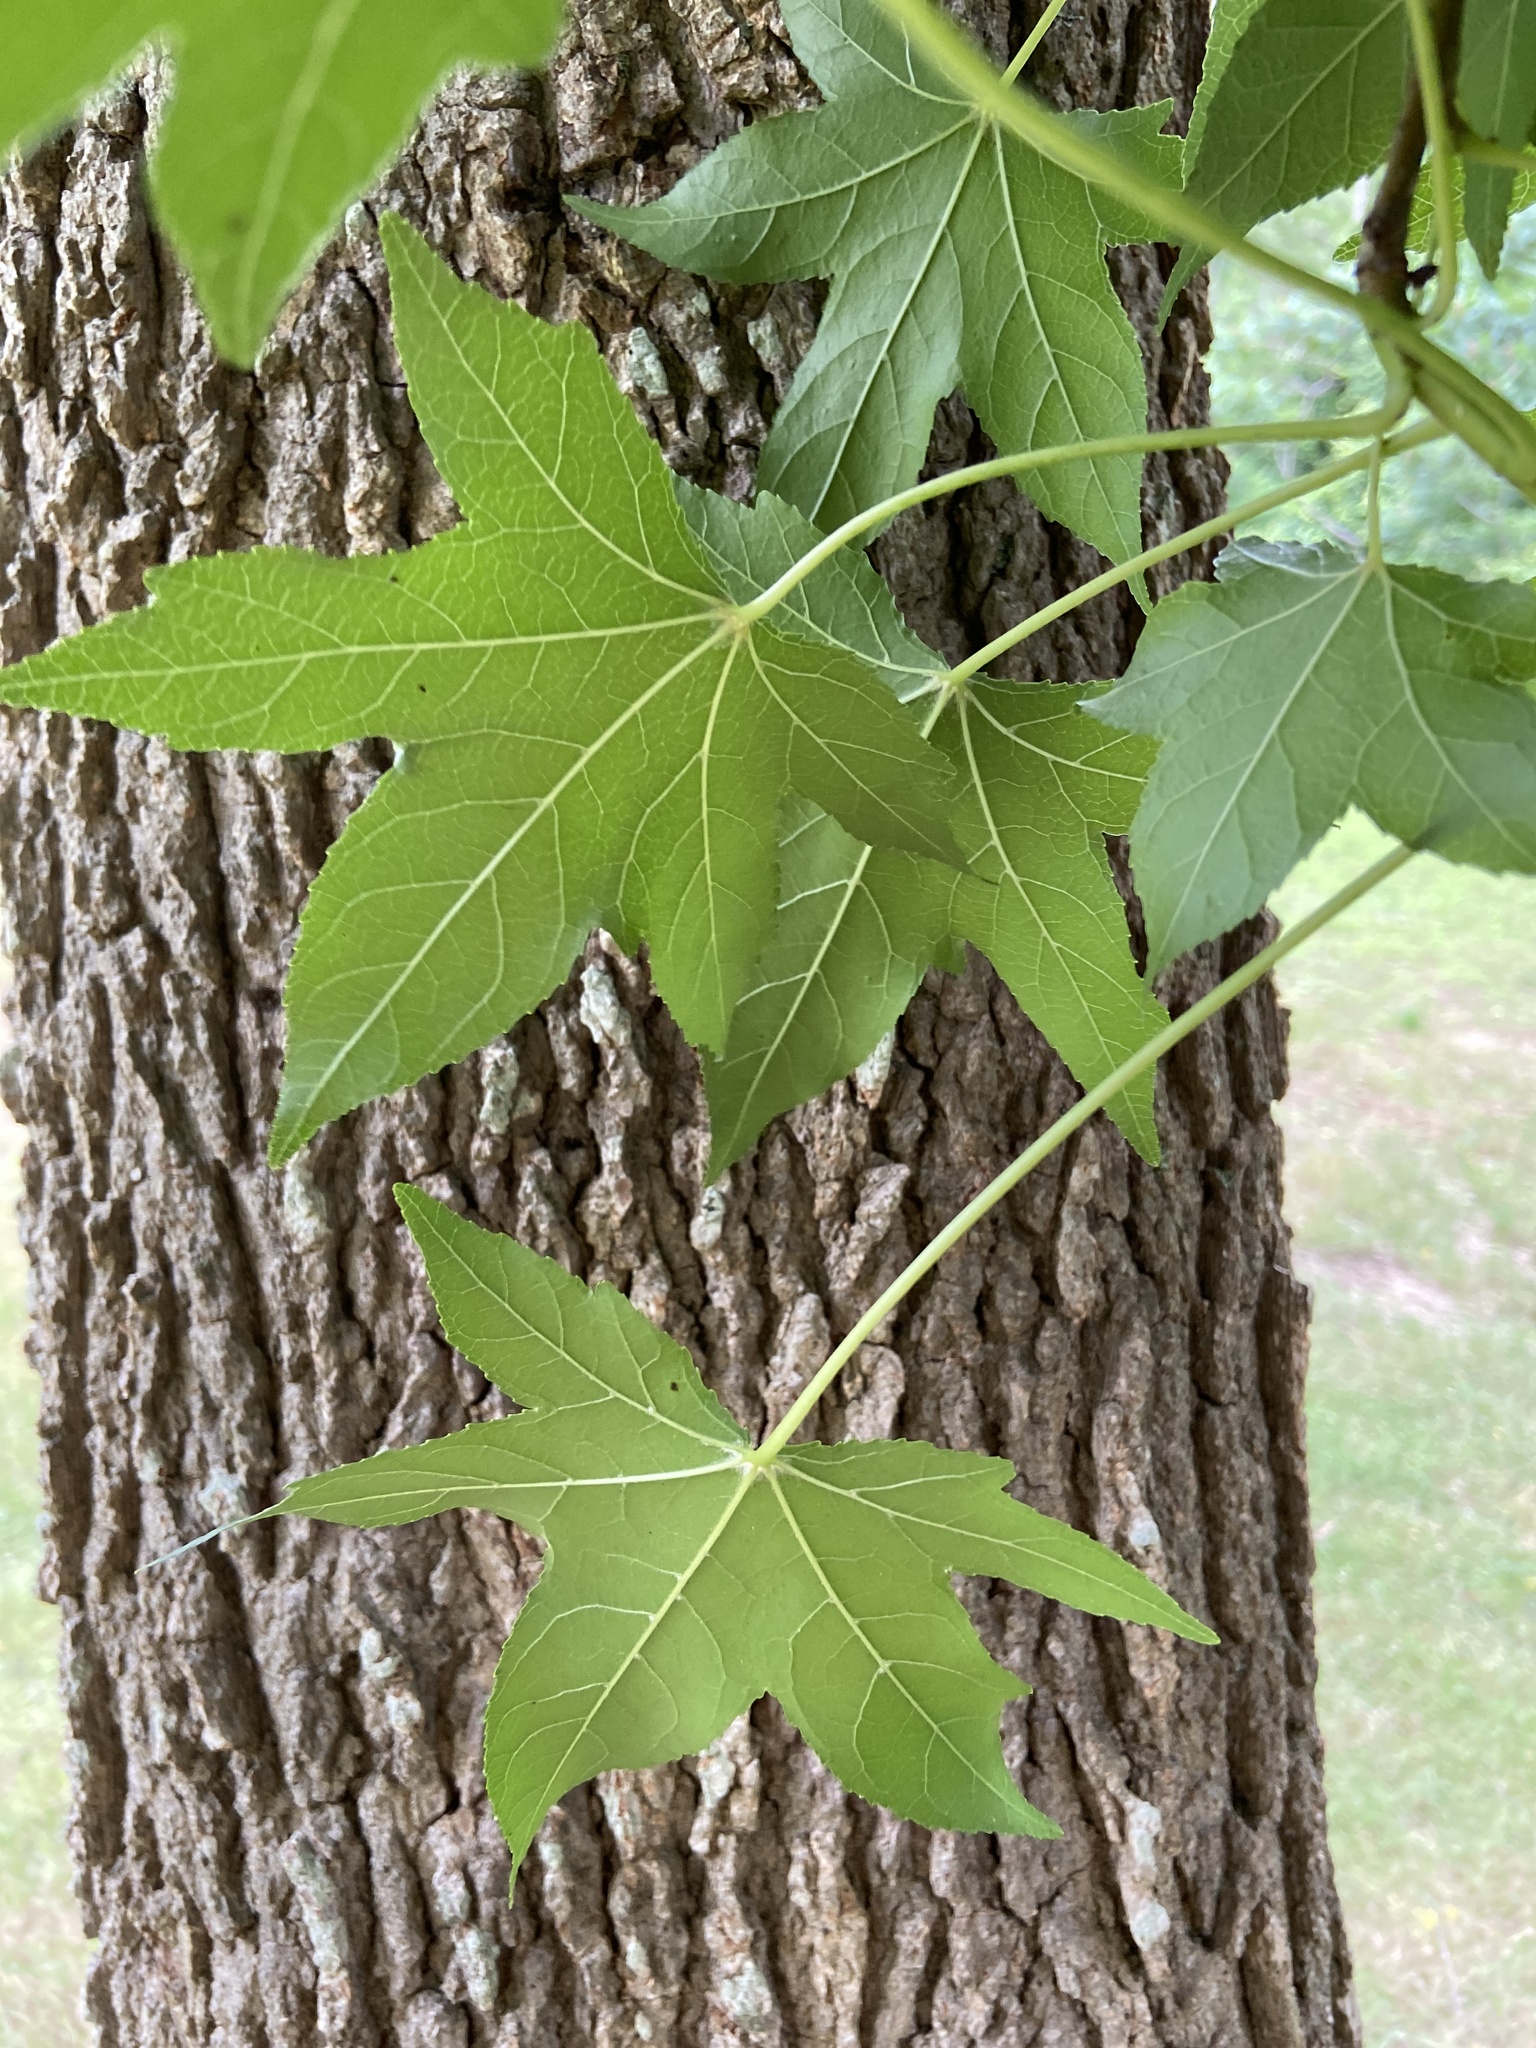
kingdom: Plantae
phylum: Tracheophyta
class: Magnoliopsida
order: Saxifragales
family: Altingiaceae
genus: Liquidambar
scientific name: Liquidambar styraciflua
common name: Sweet gum
